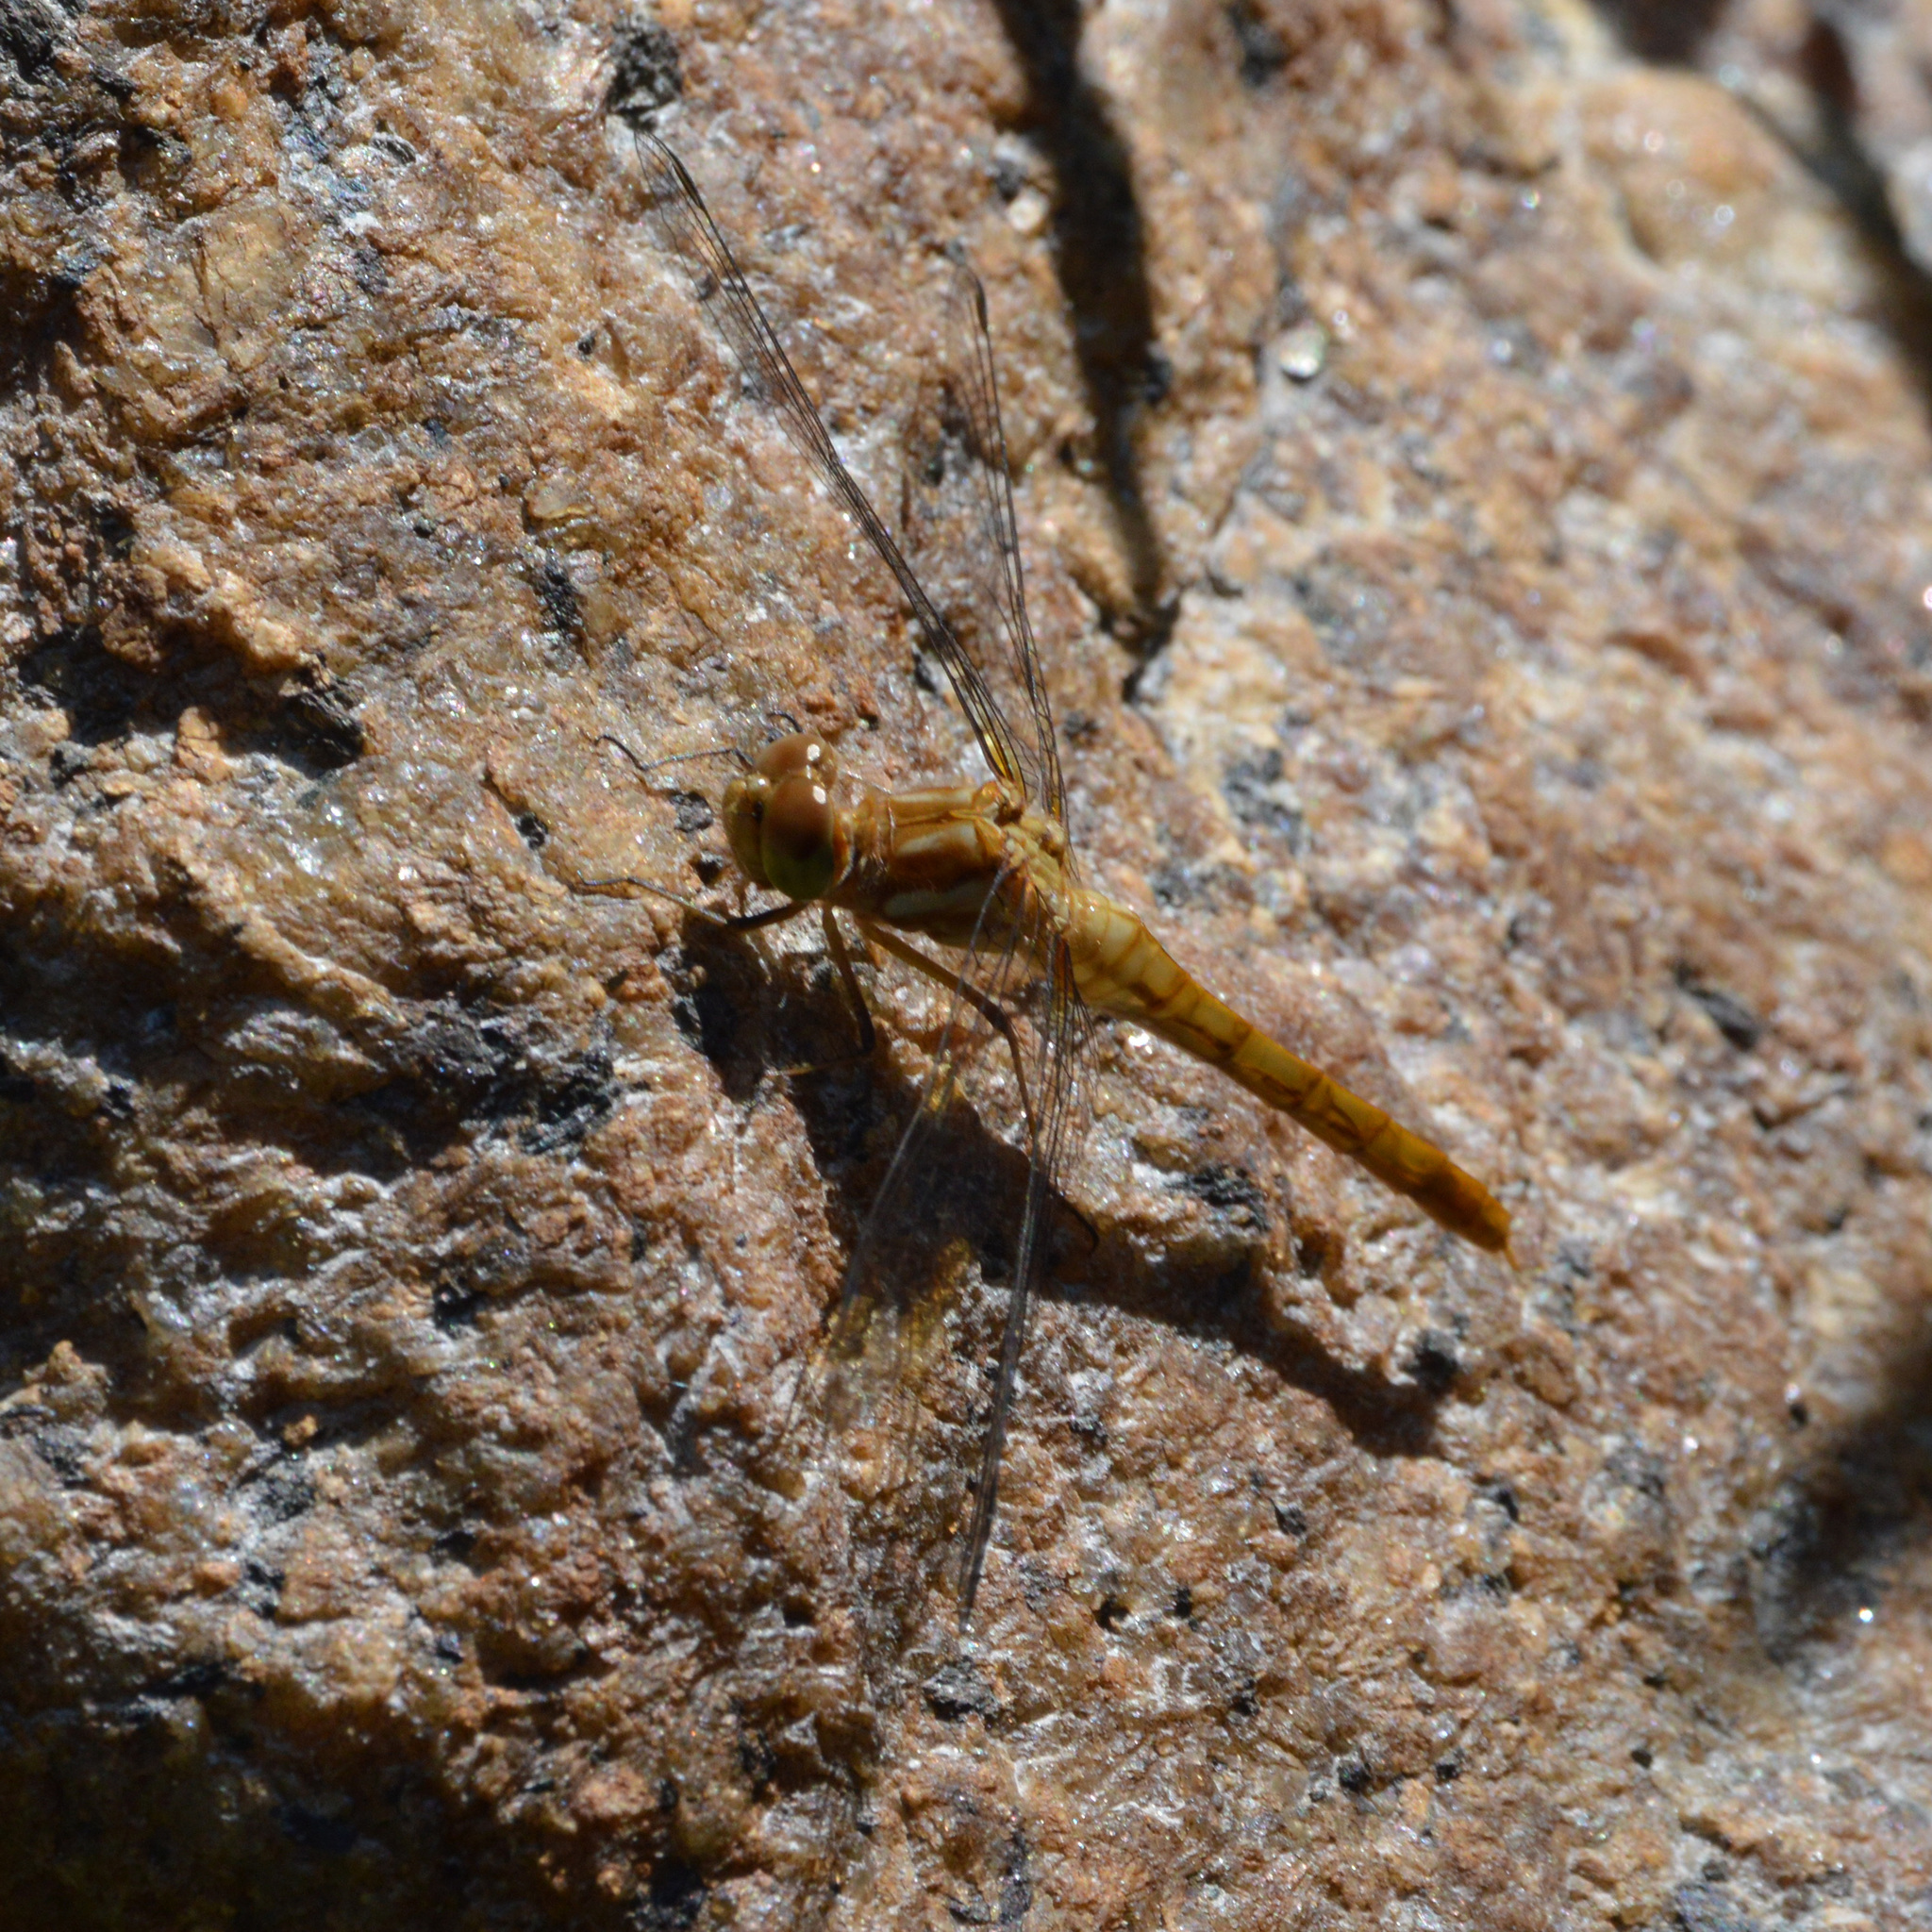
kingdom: Animalia
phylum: Arthropoda
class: Insecta
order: Odonata
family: Libellulidae
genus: Sympetrum
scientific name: Sympetrum pallipes
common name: Striped meadowhawk
